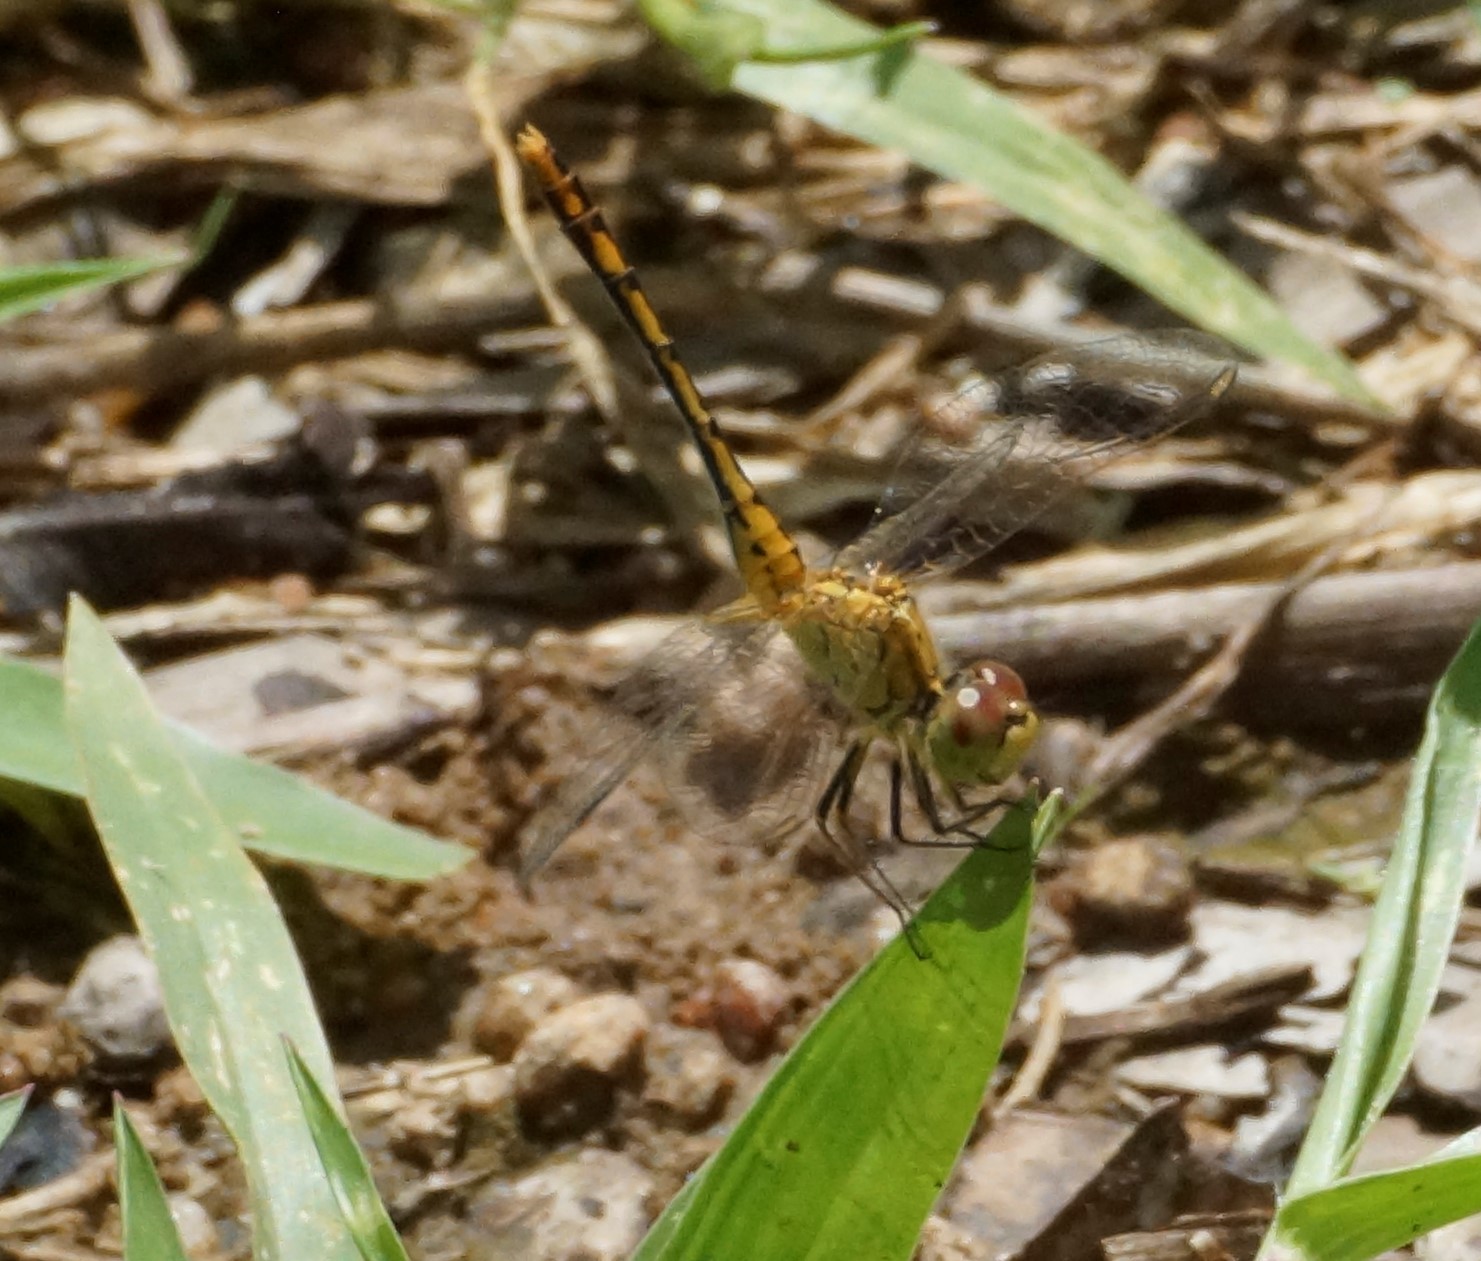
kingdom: Animalia
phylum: Arthropoda
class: Insecta
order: Odonata
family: Libellulidae
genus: Diplacodes
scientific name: Diplacodes bipunctata
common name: Red percher dragonfly
